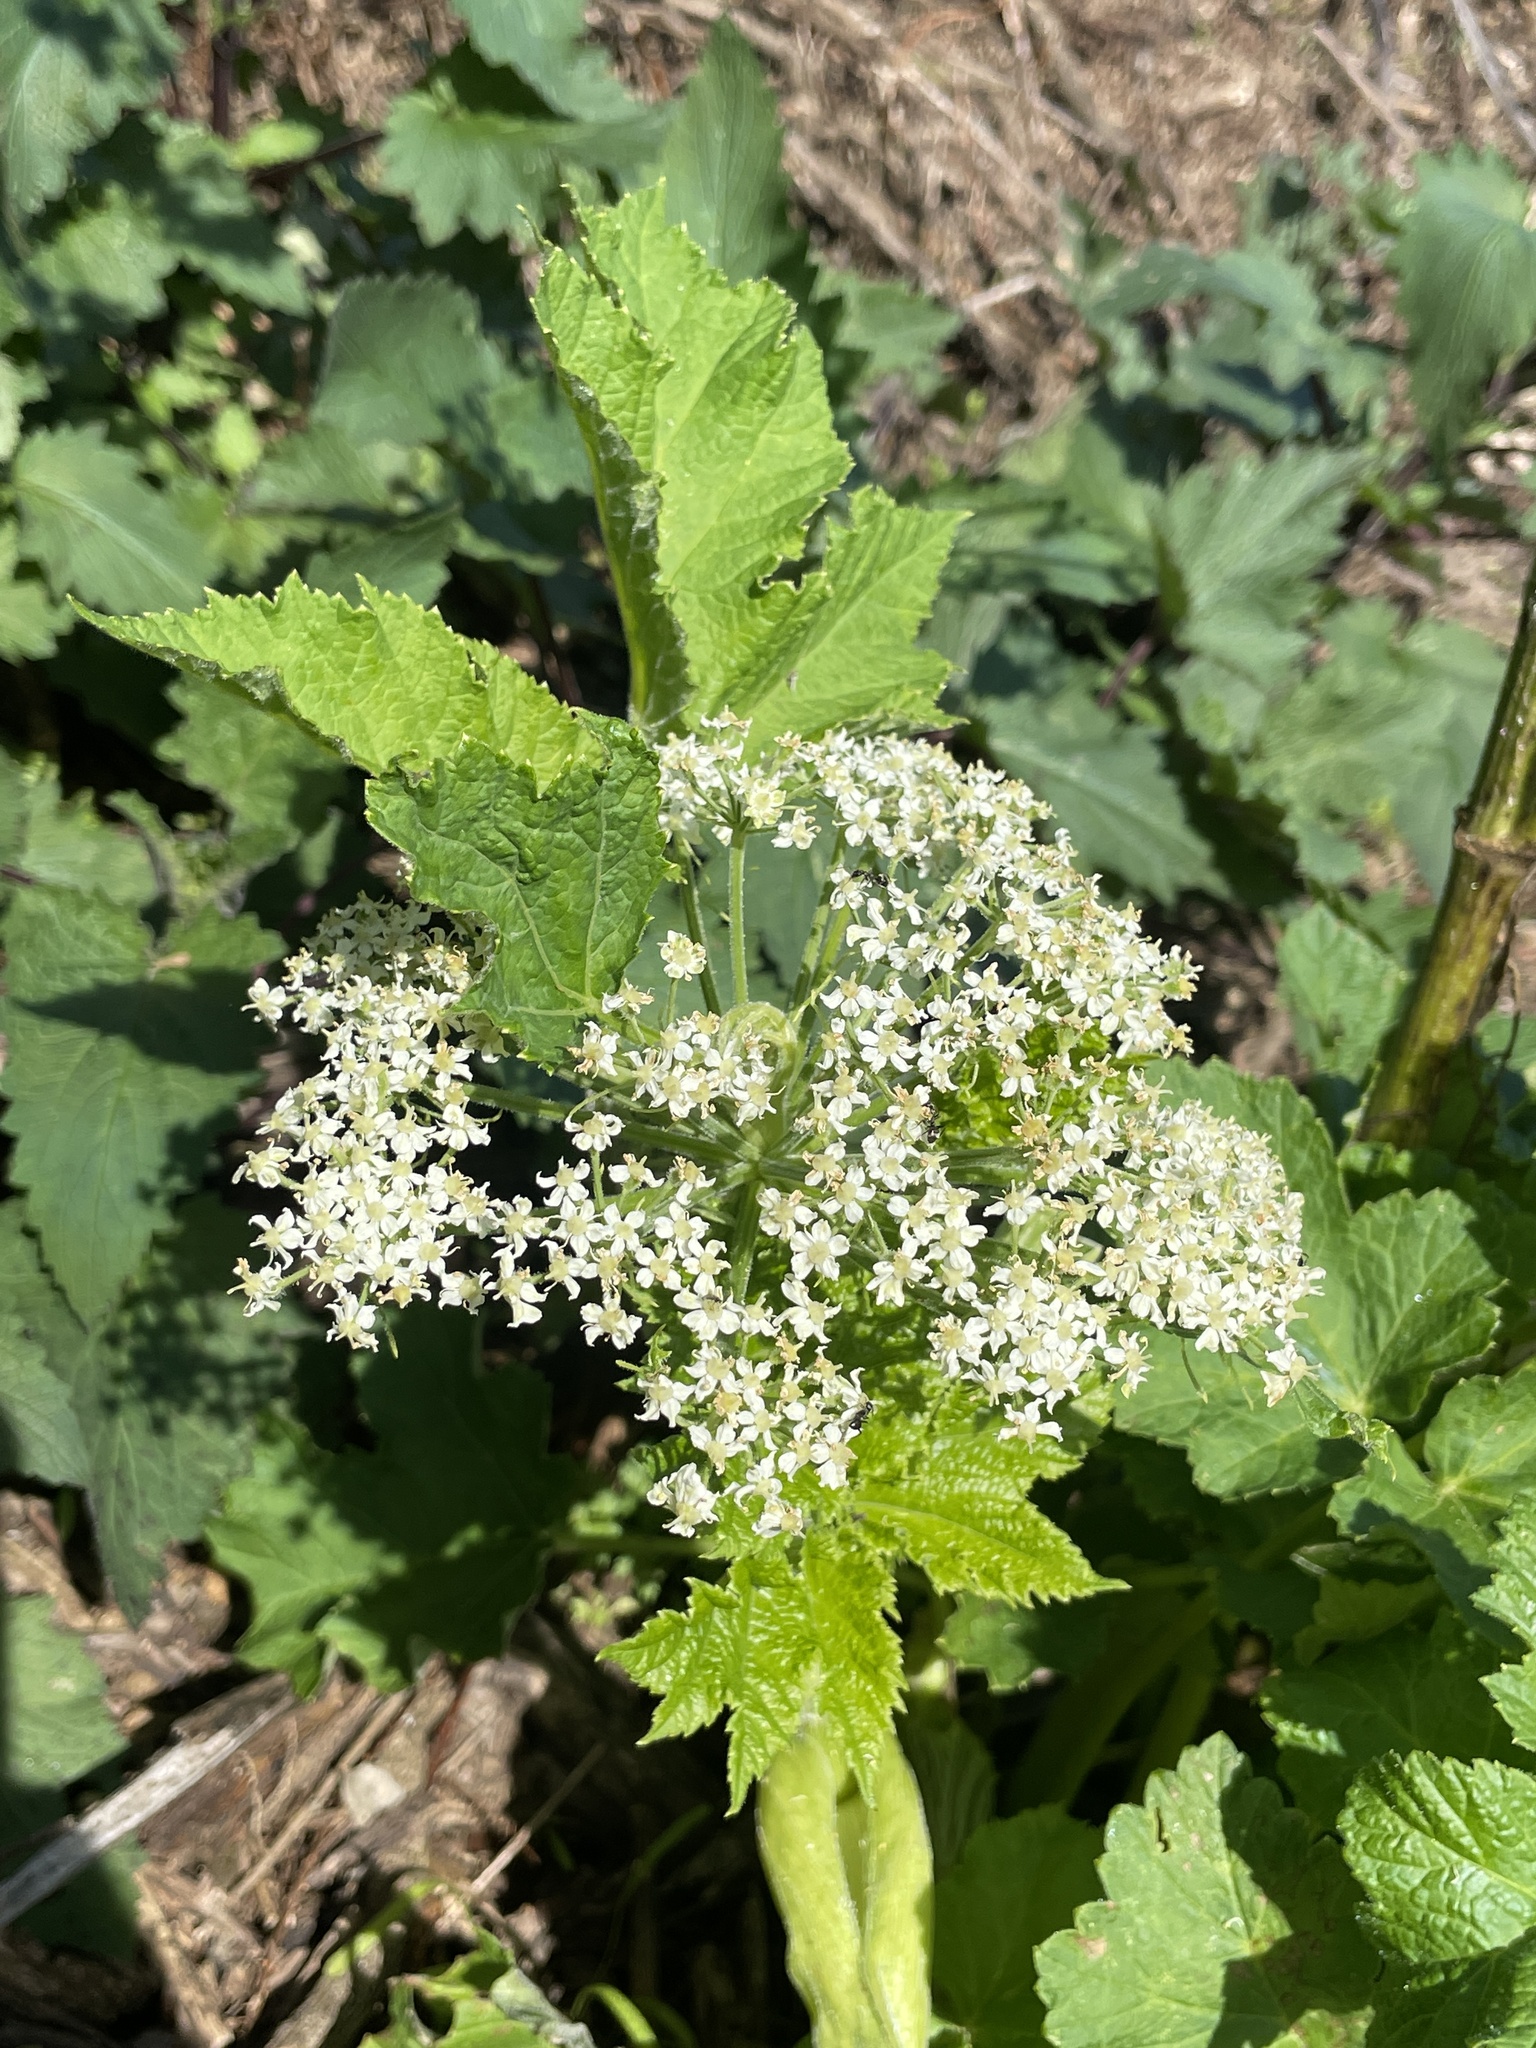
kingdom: Plantae
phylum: Tracheophyta
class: Magnoliopsida
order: Apiales
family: Apiaceae
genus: Heracleum
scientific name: Heracleum maximum
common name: American cow parsnip
